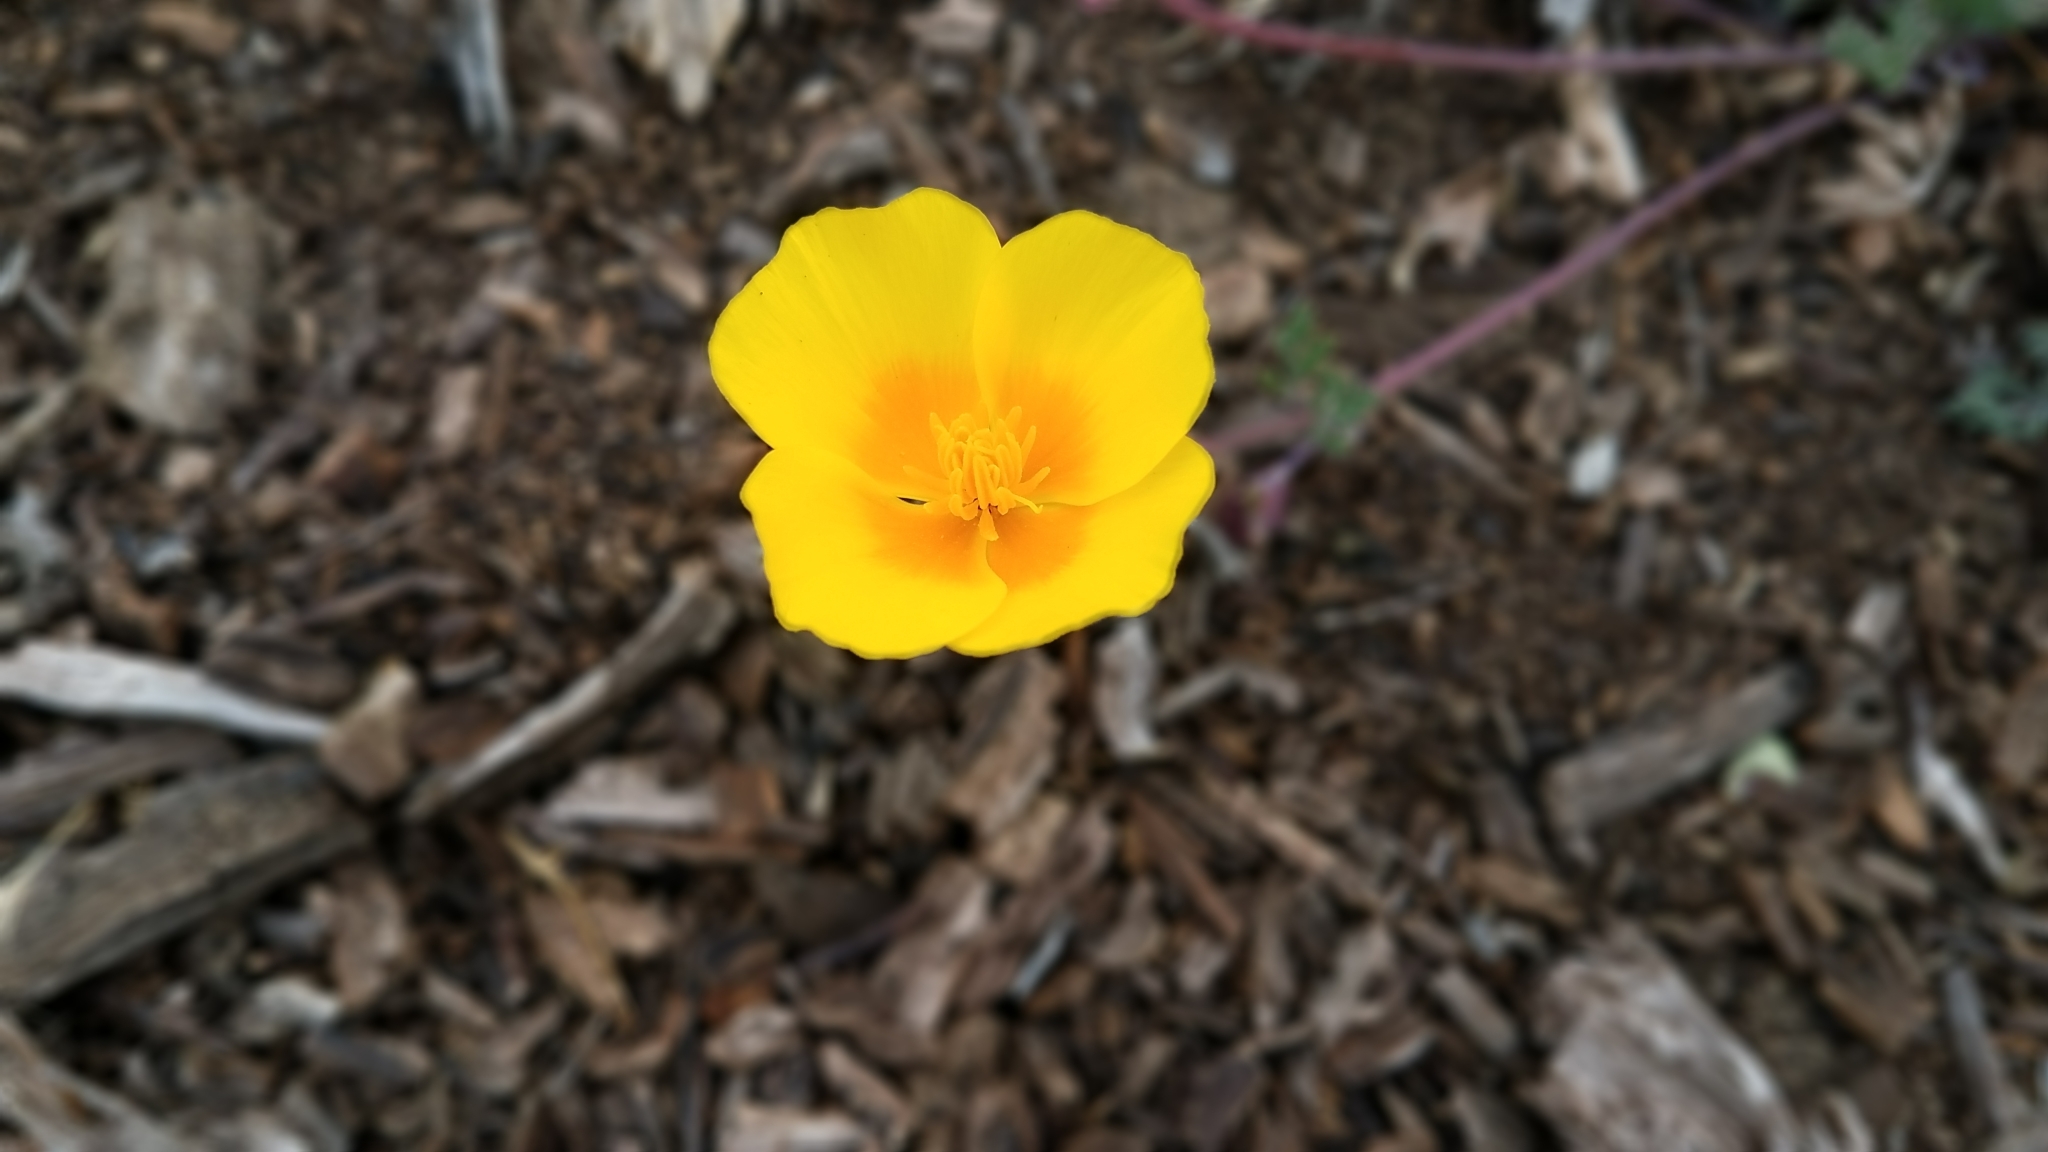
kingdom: Plantae
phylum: Tracheophyta
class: Magnoliopsida
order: Ranunculales
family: Papaveraceae
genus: Eschscholzia
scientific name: Eschscholzia californica
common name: California poppy
